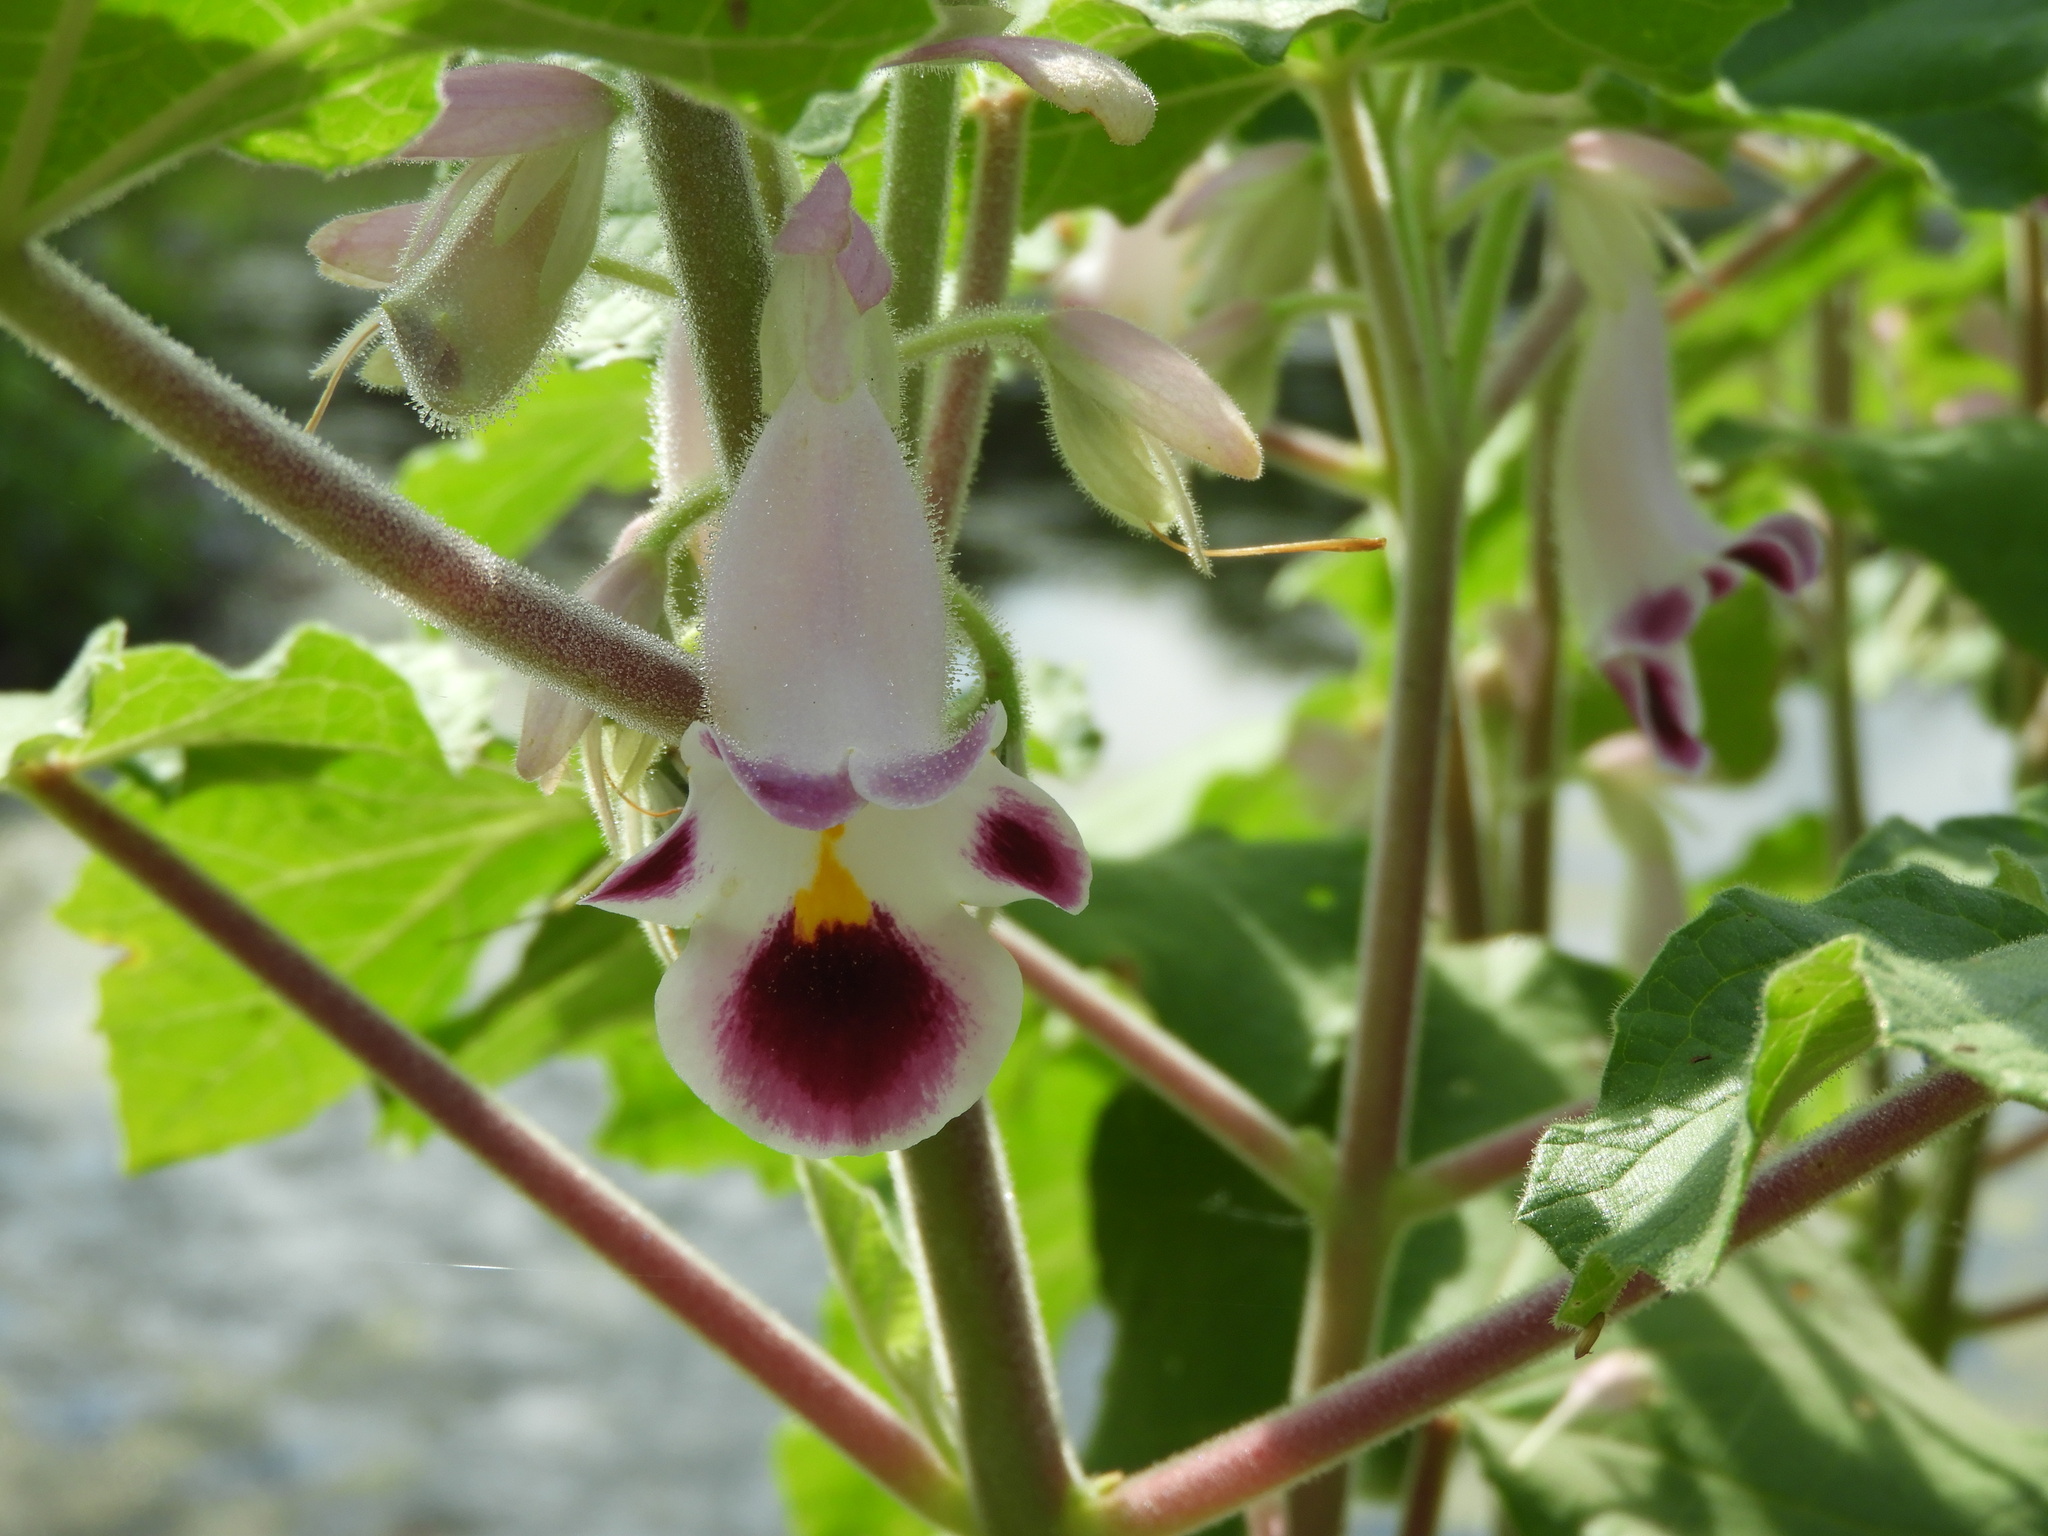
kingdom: Plantae
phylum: Tracheophyta
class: Magnoliopsida
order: Lamiales
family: Martyniaceae
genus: Martynia
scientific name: Martynia annua
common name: Tiger's-claw
